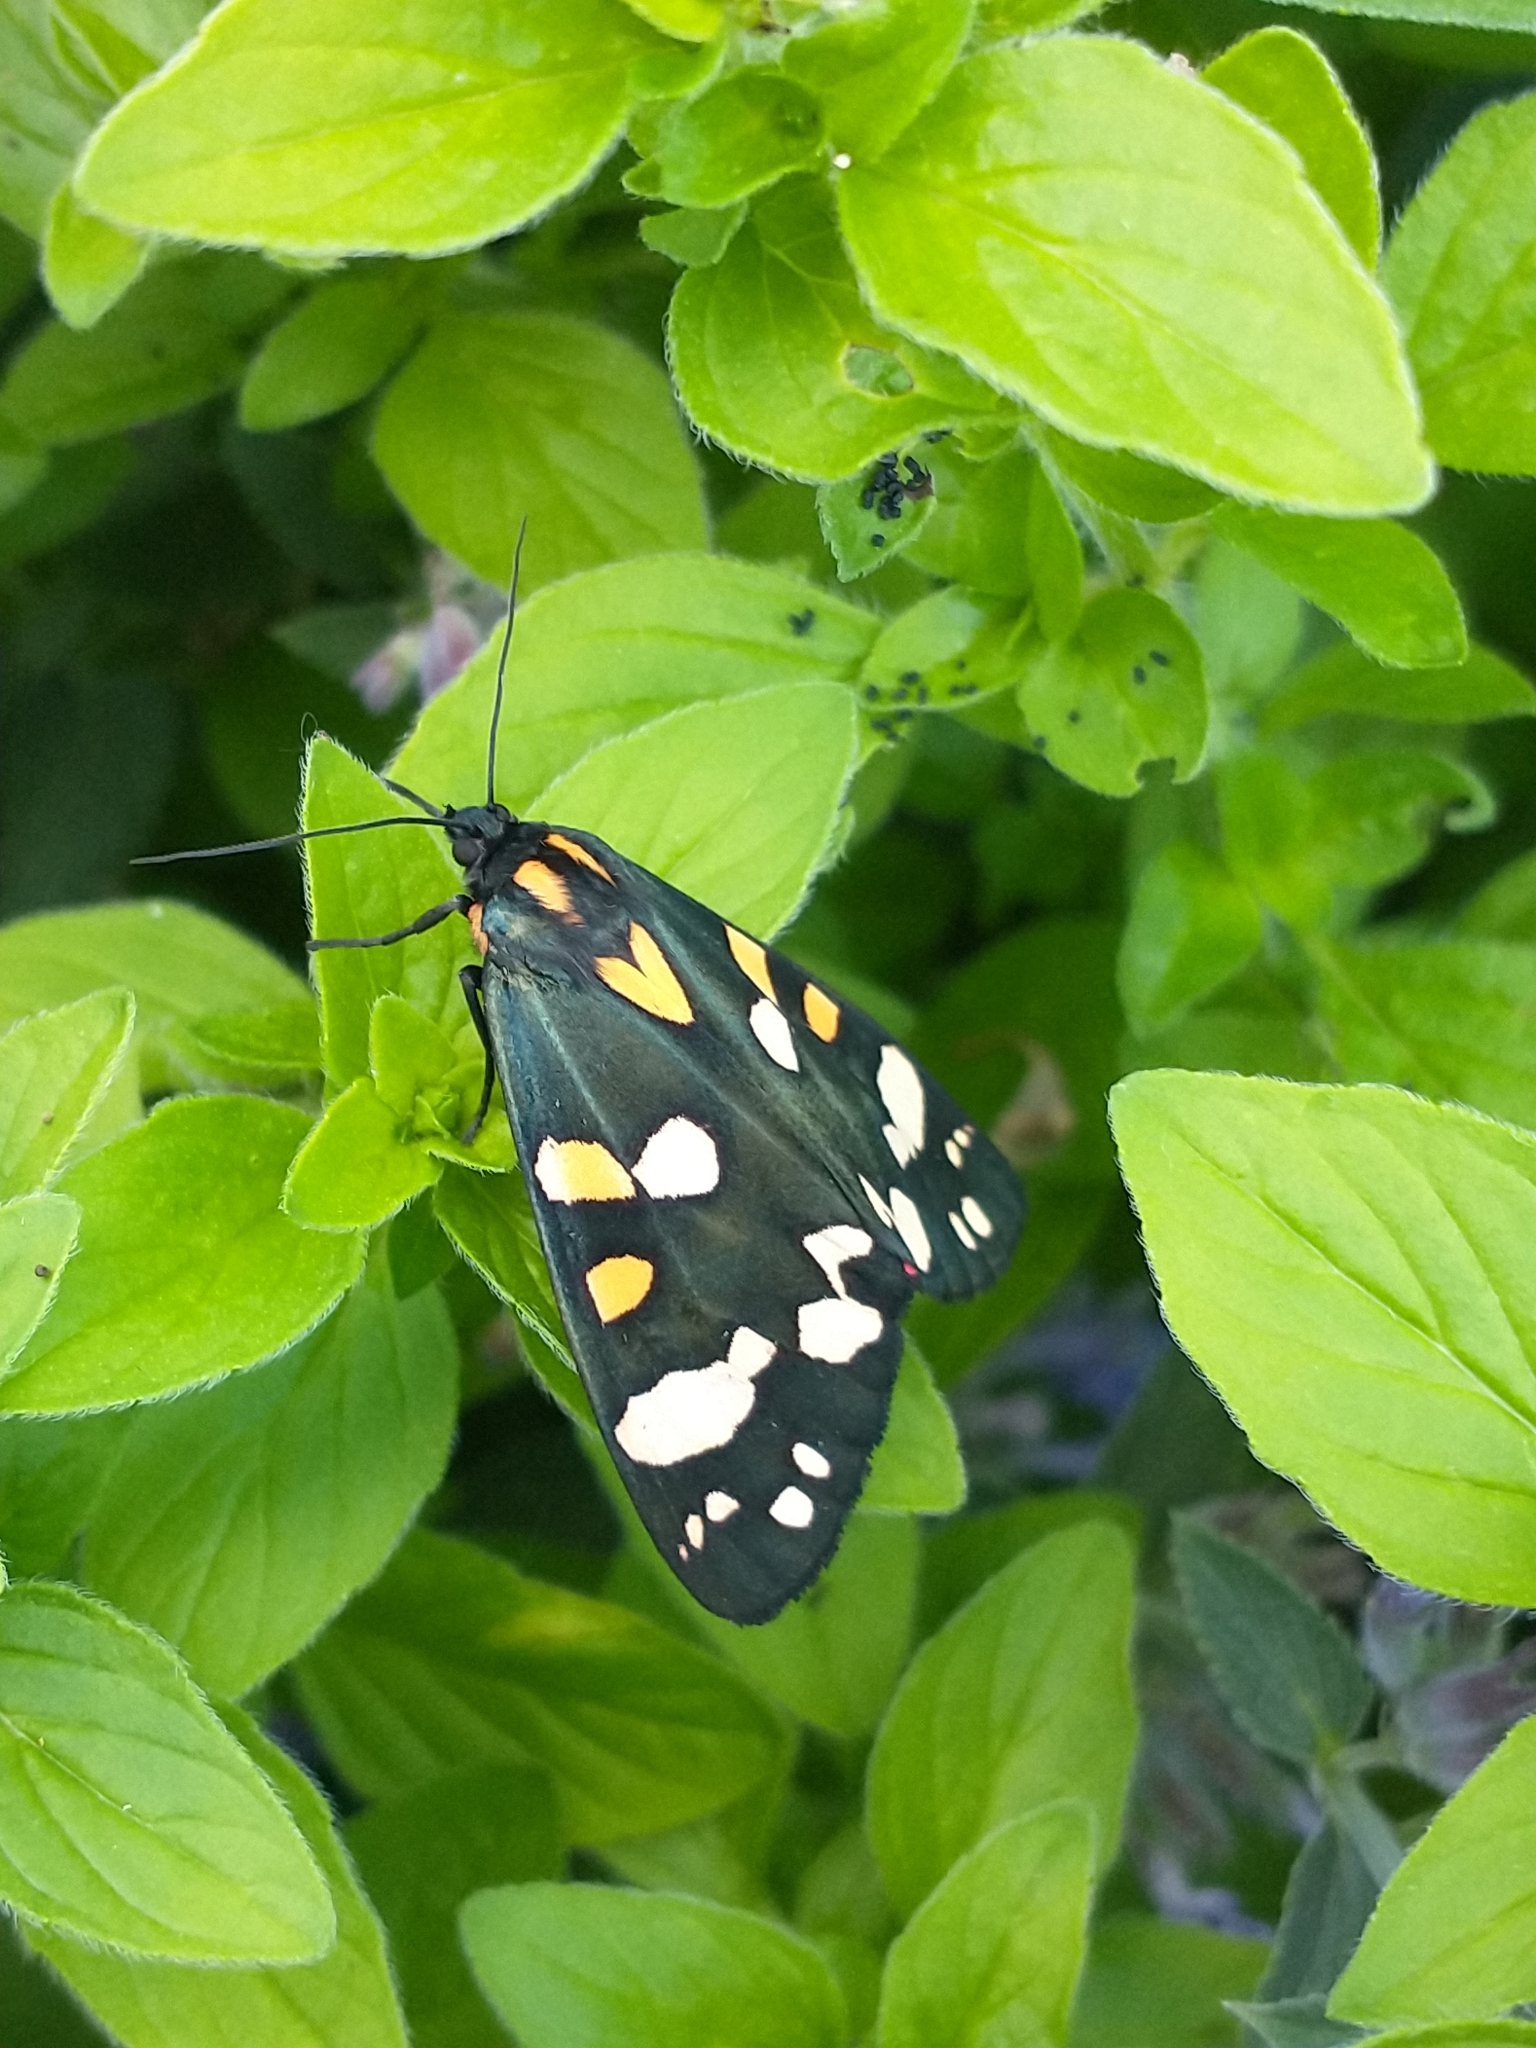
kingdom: Animalia
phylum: Arthropoda
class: Insecta
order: Lepidoptera
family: Erebidae
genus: Callimorpha
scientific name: Callimorpha dominula
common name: Scarlet tiger
